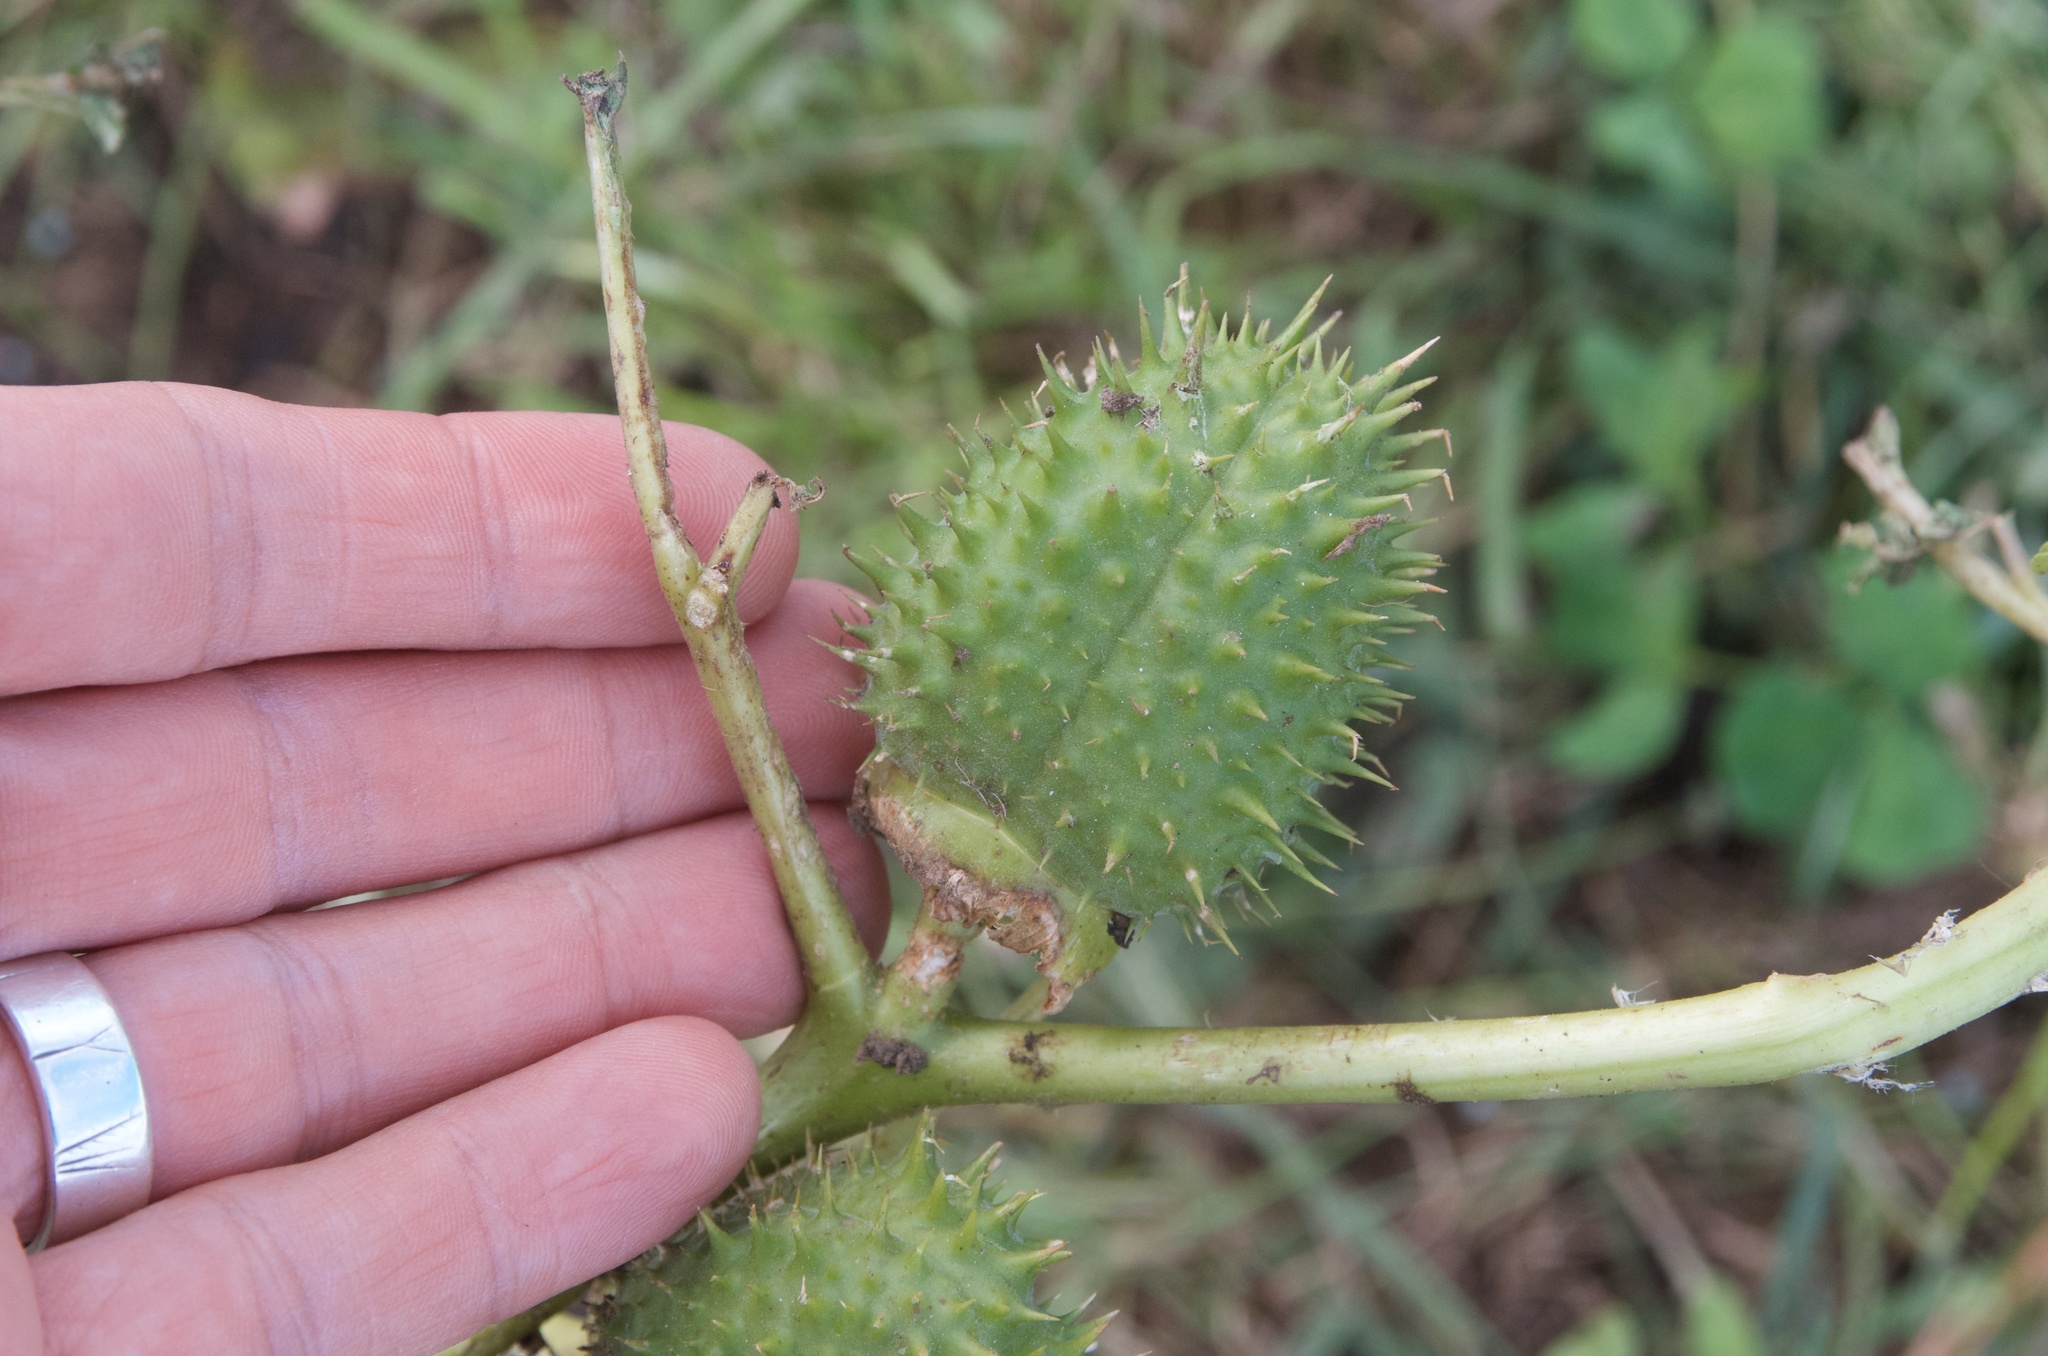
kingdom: Plantae
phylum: Tracheophyta
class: Magnoliopsida
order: Solanales
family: Solanaceae
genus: Datura
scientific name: Datura stramonium
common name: Thorn-apple
